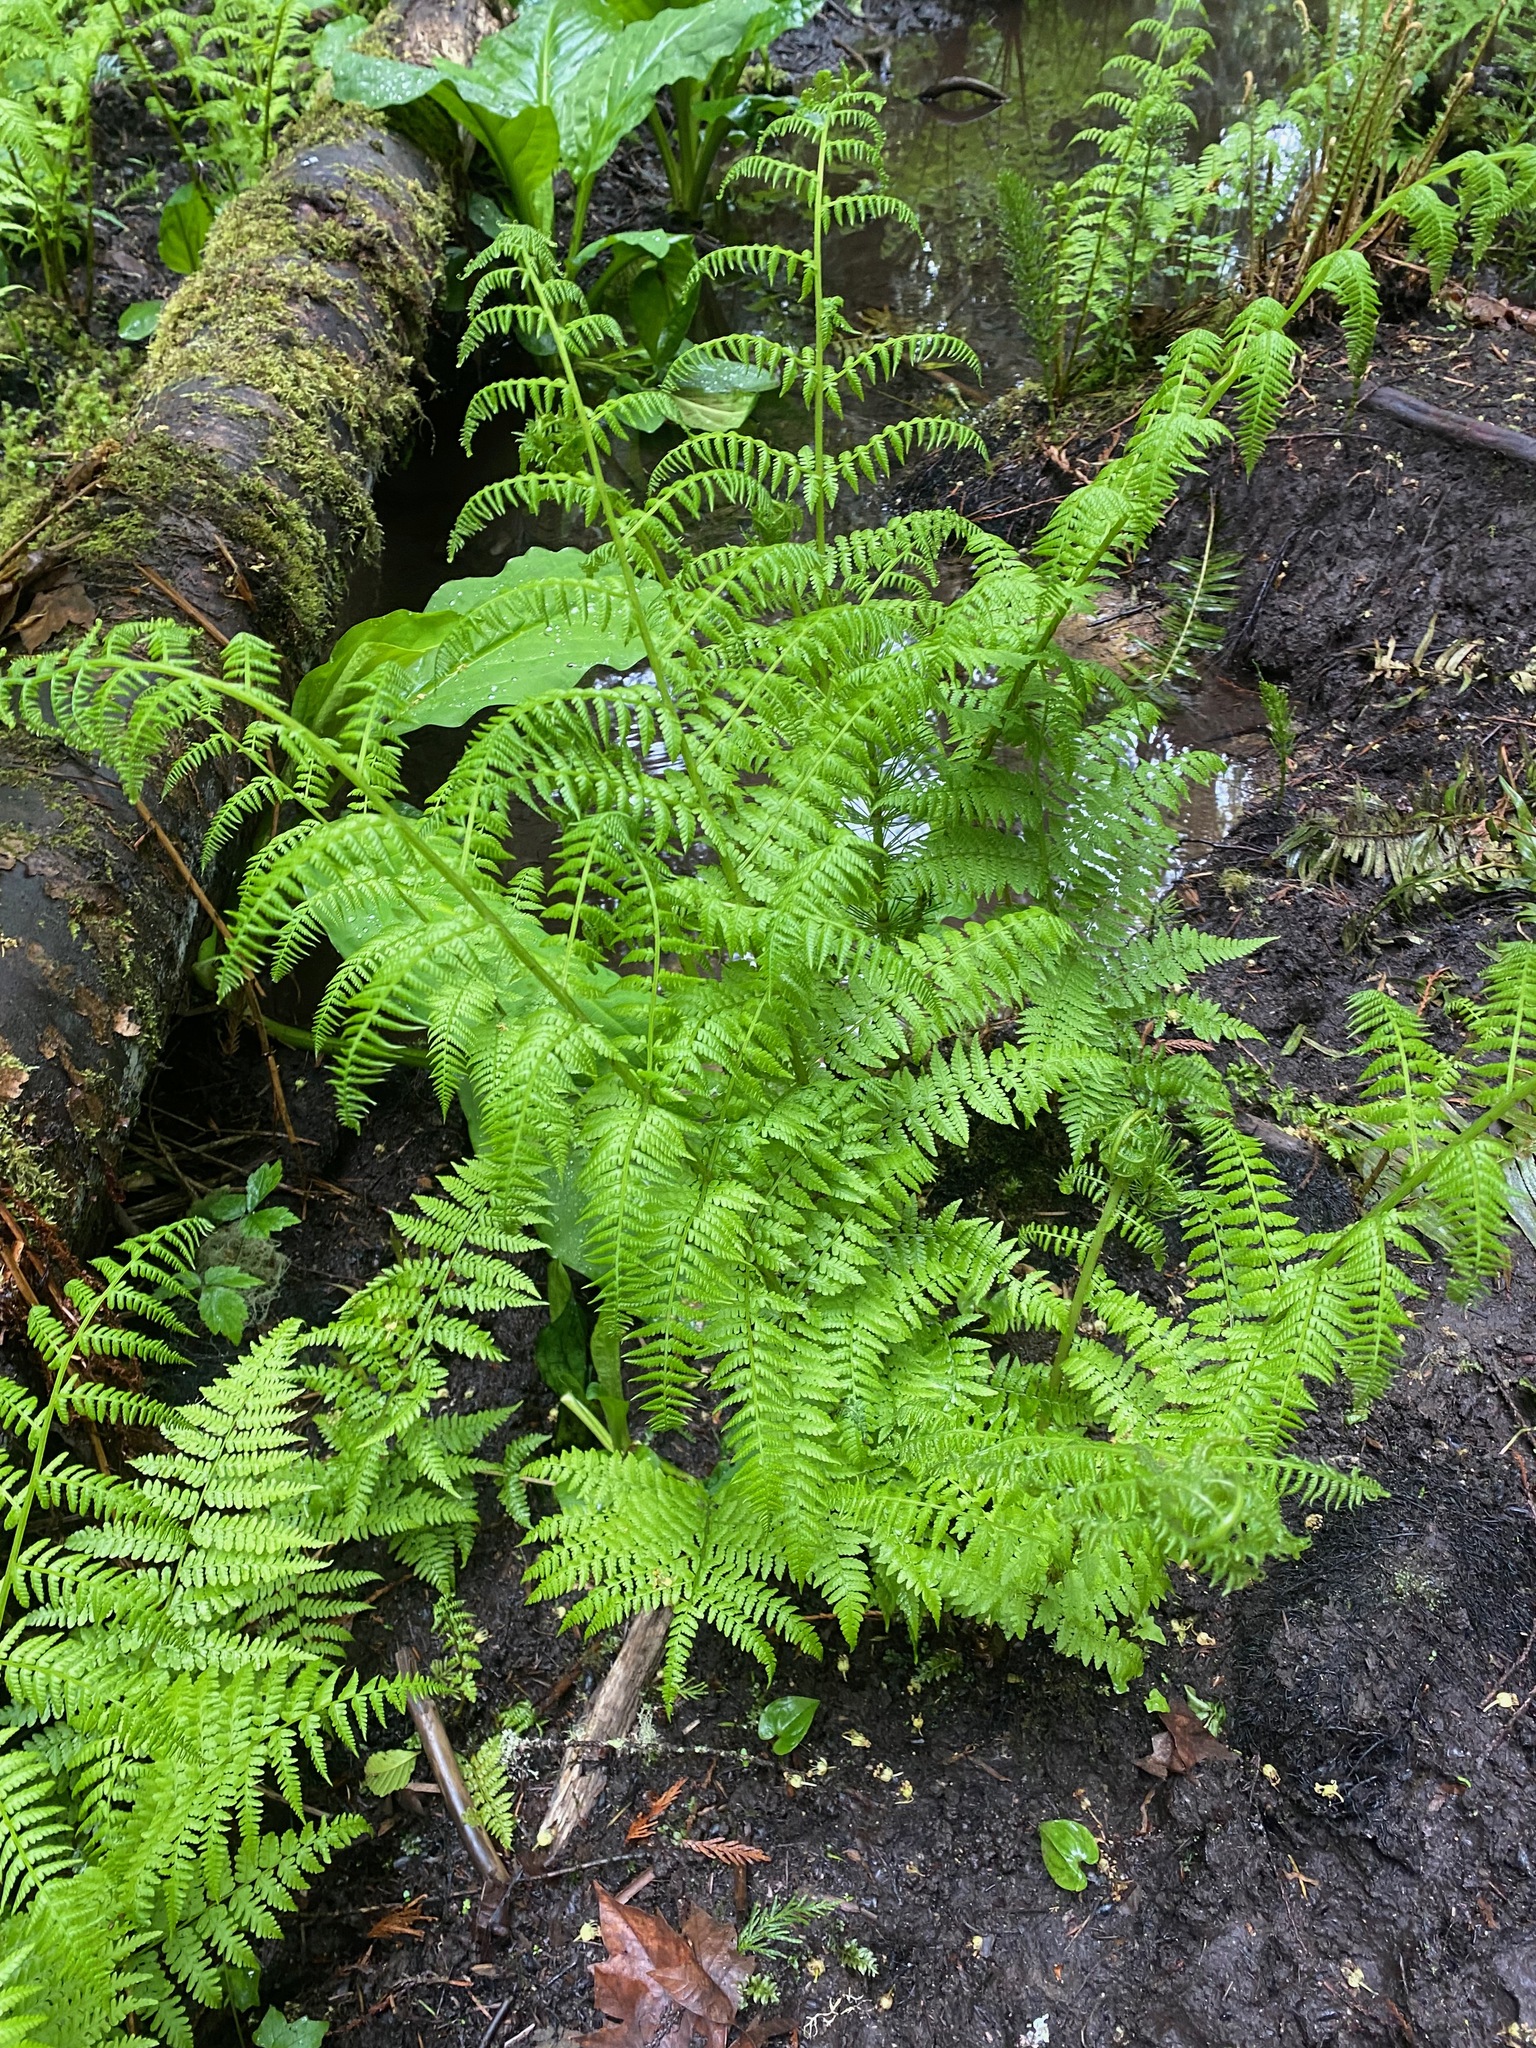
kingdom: Plantae
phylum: Tracheophyta
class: Polypodiopsida
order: Polypodiales
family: Athyriaceae
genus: Athyrium
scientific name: Athyrium cyclosorum
